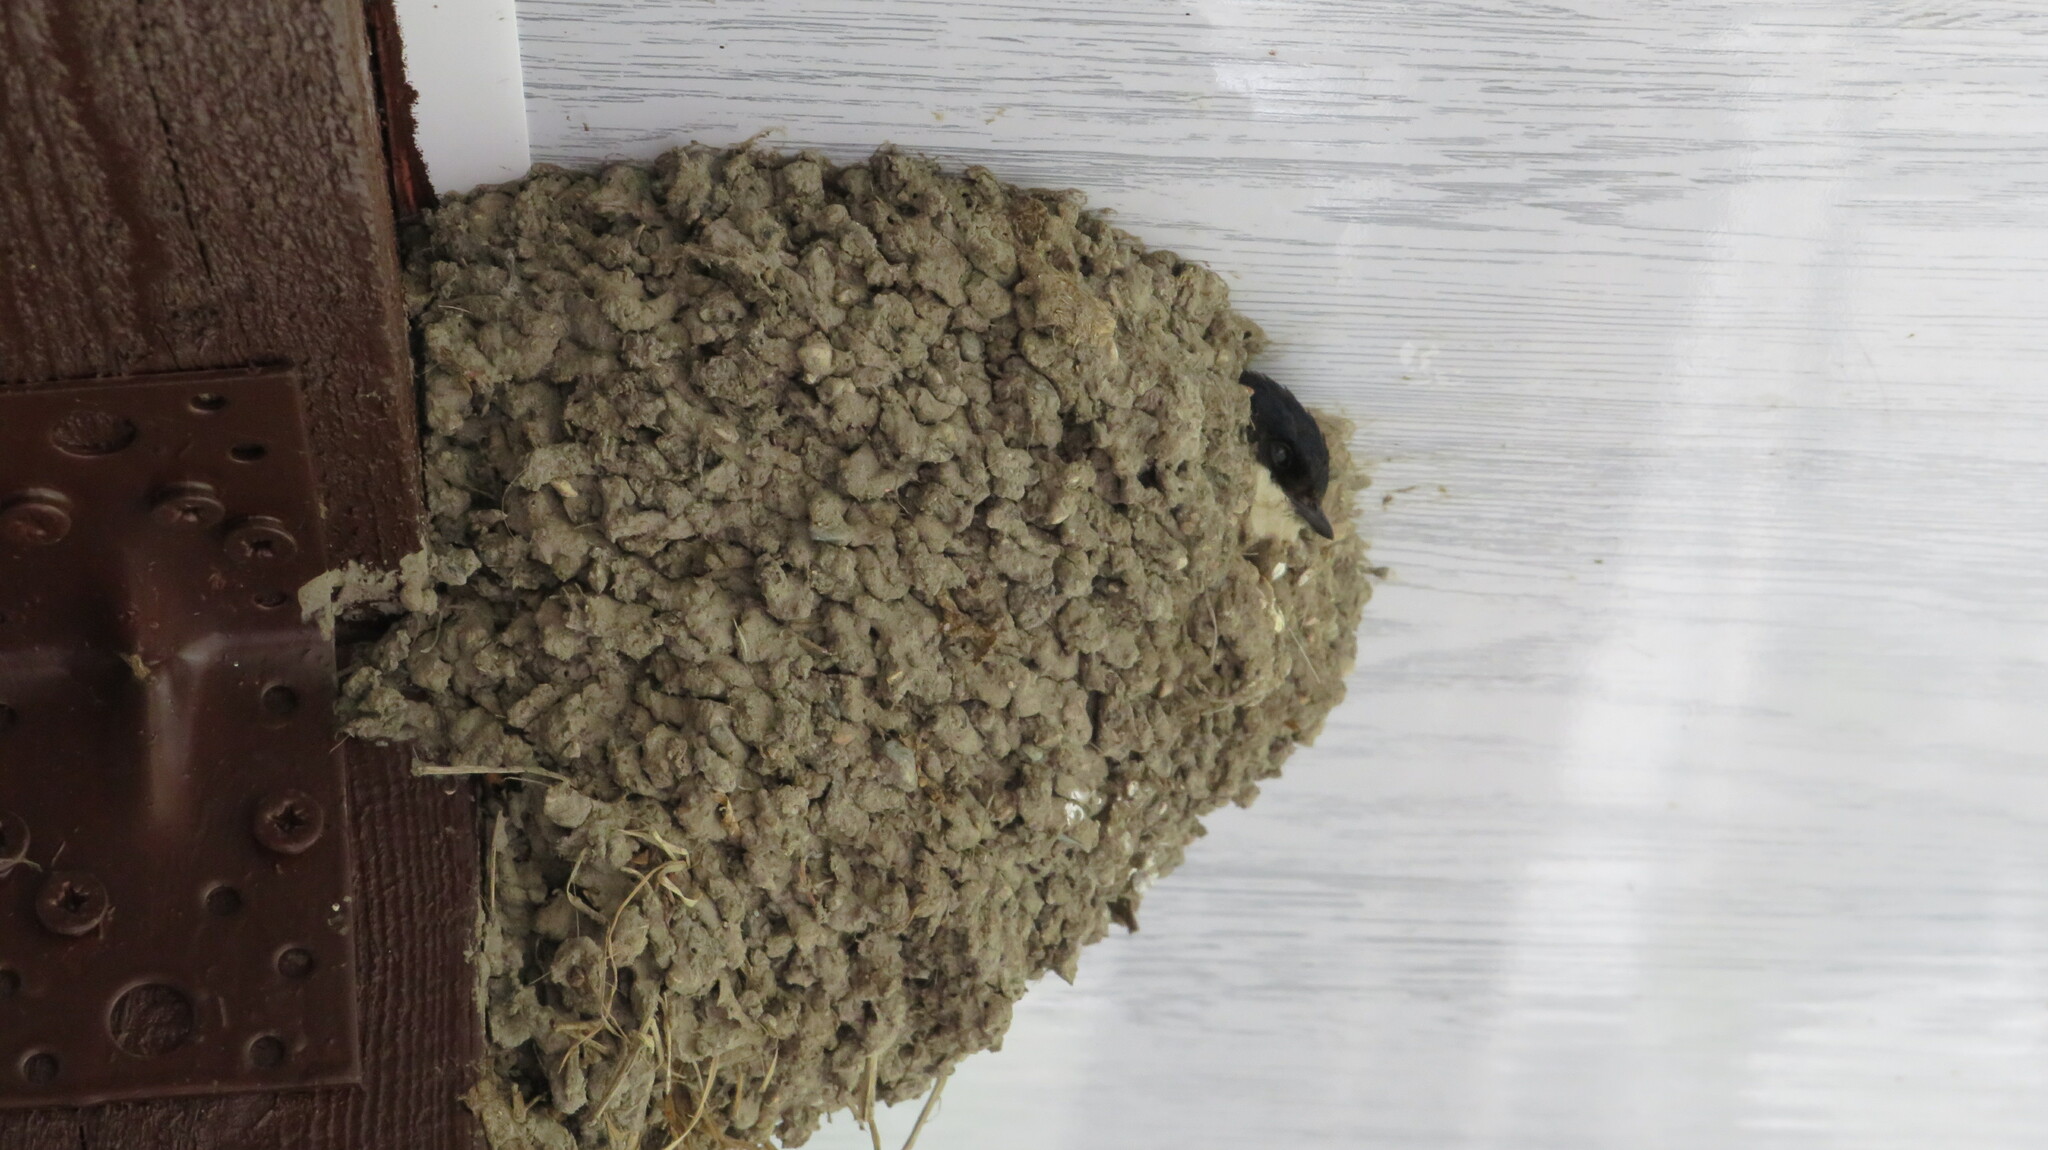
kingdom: Animalia
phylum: Chordata
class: Aves
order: Passeriformes
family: Hirundinidae
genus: Delichon
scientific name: Delichon urbicum
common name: Common house martin
